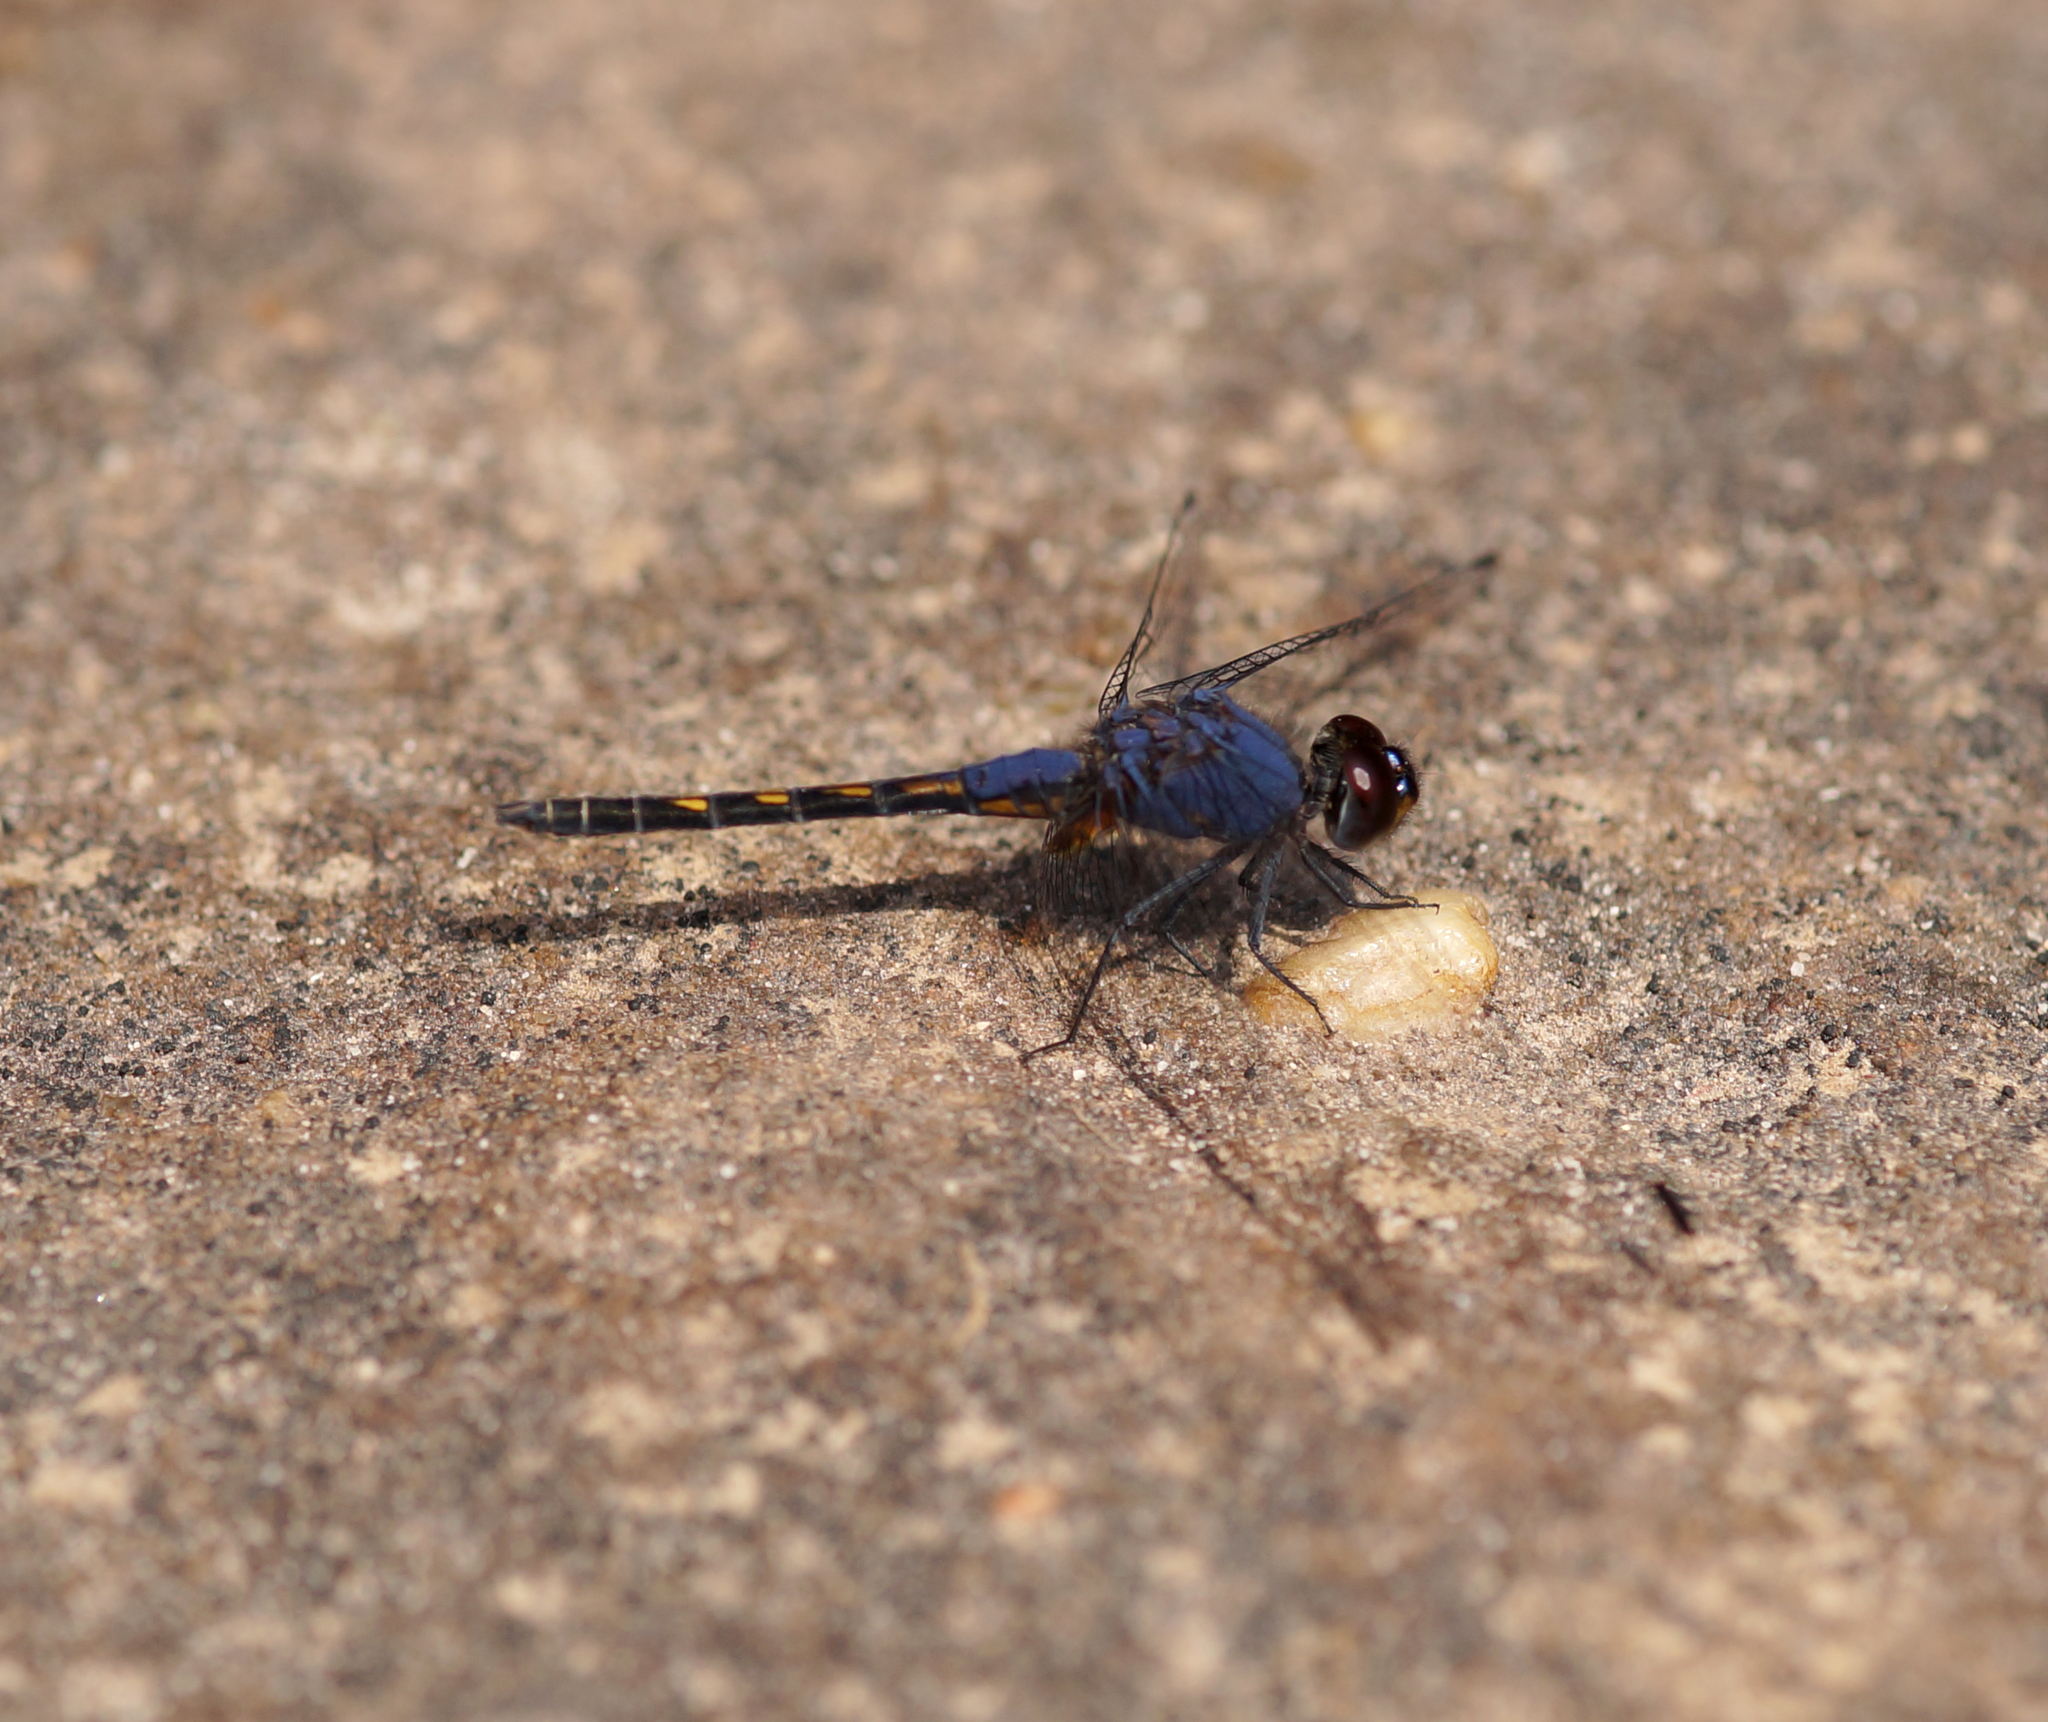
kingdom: Animalia
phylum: Arthropoda
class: Insecta
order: Odonata
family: Libellulidae
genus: Trithemis
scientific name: Trithemis festiva
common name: Indigo dropwing
